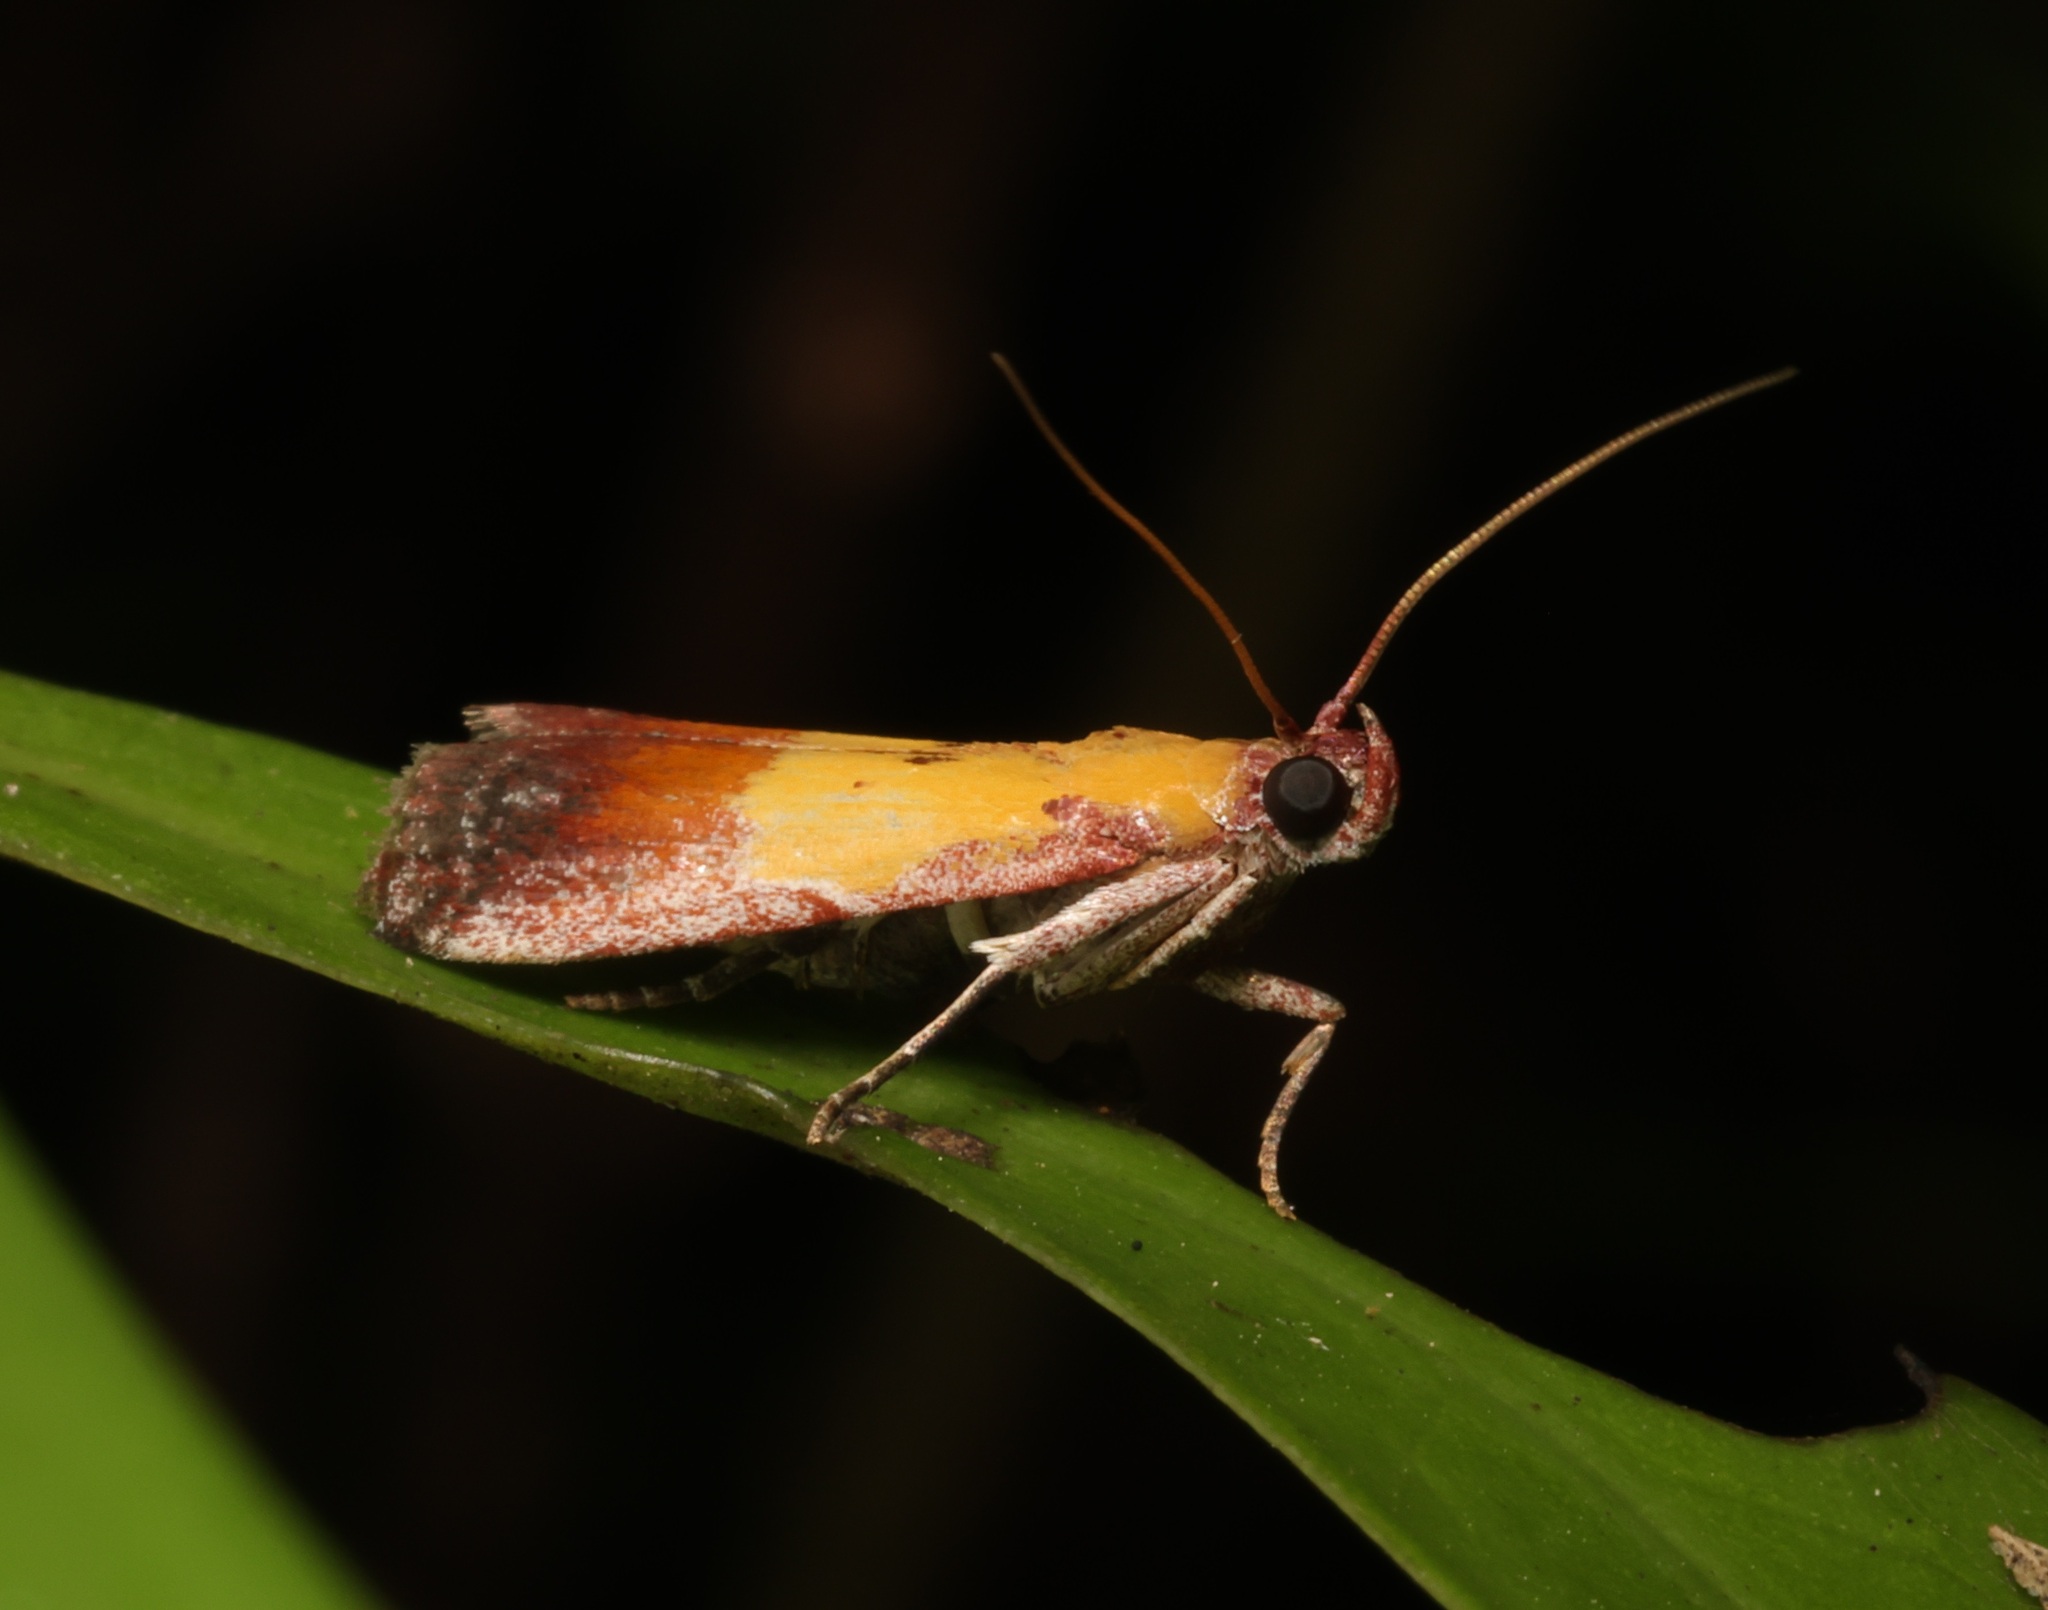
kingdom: Animalia
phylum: Arthropoda
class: Insecta
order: Lepidoptera
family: Pyralidae
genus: Piesmopoda
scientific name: Piesmopoda
